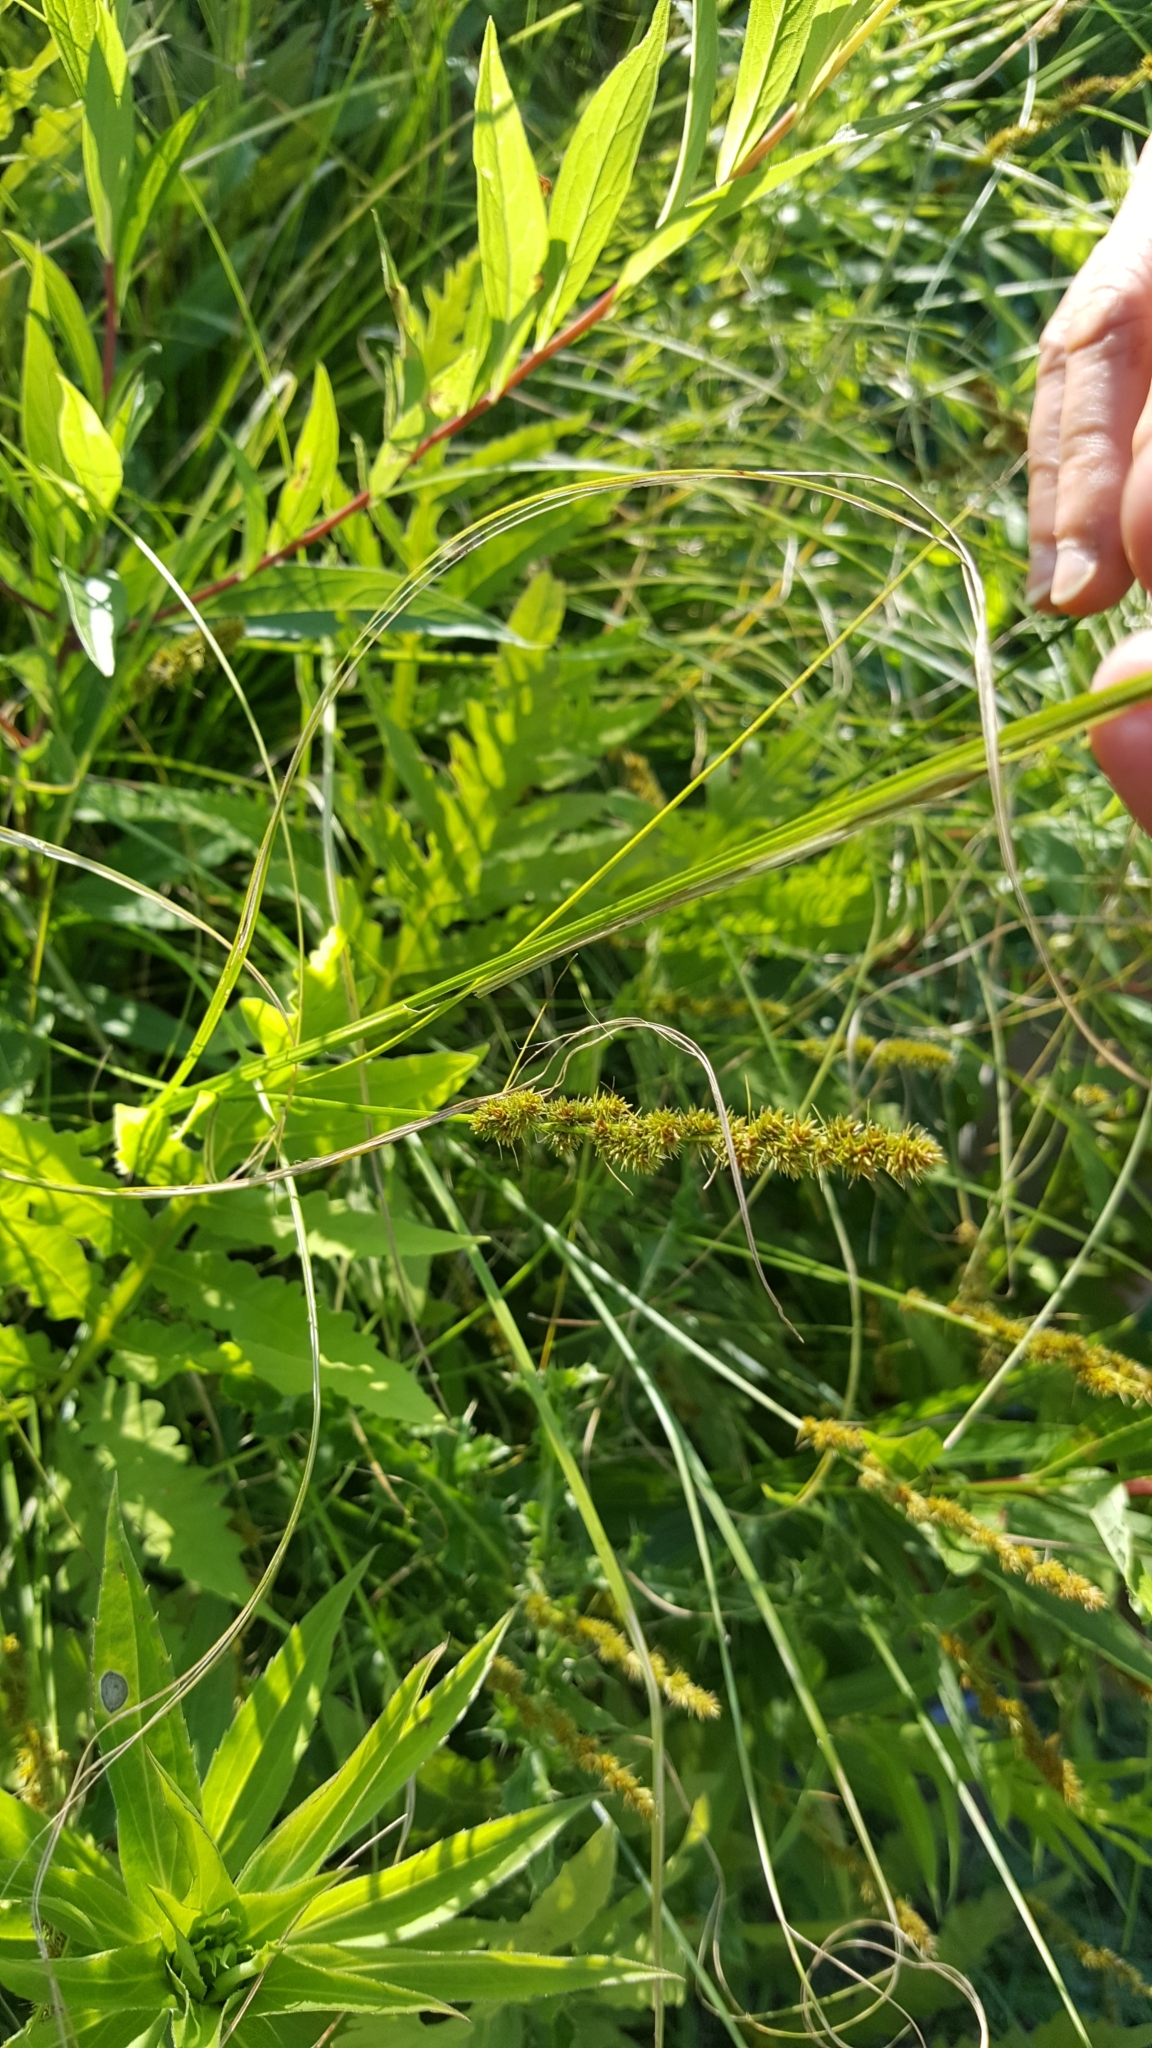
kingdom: Plantae
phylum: Tracheophyta
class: Liliopsida
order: Poales
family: Cyperaceae
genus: Carex
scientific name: Carex vulpinoidea
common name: American fox-sedge
